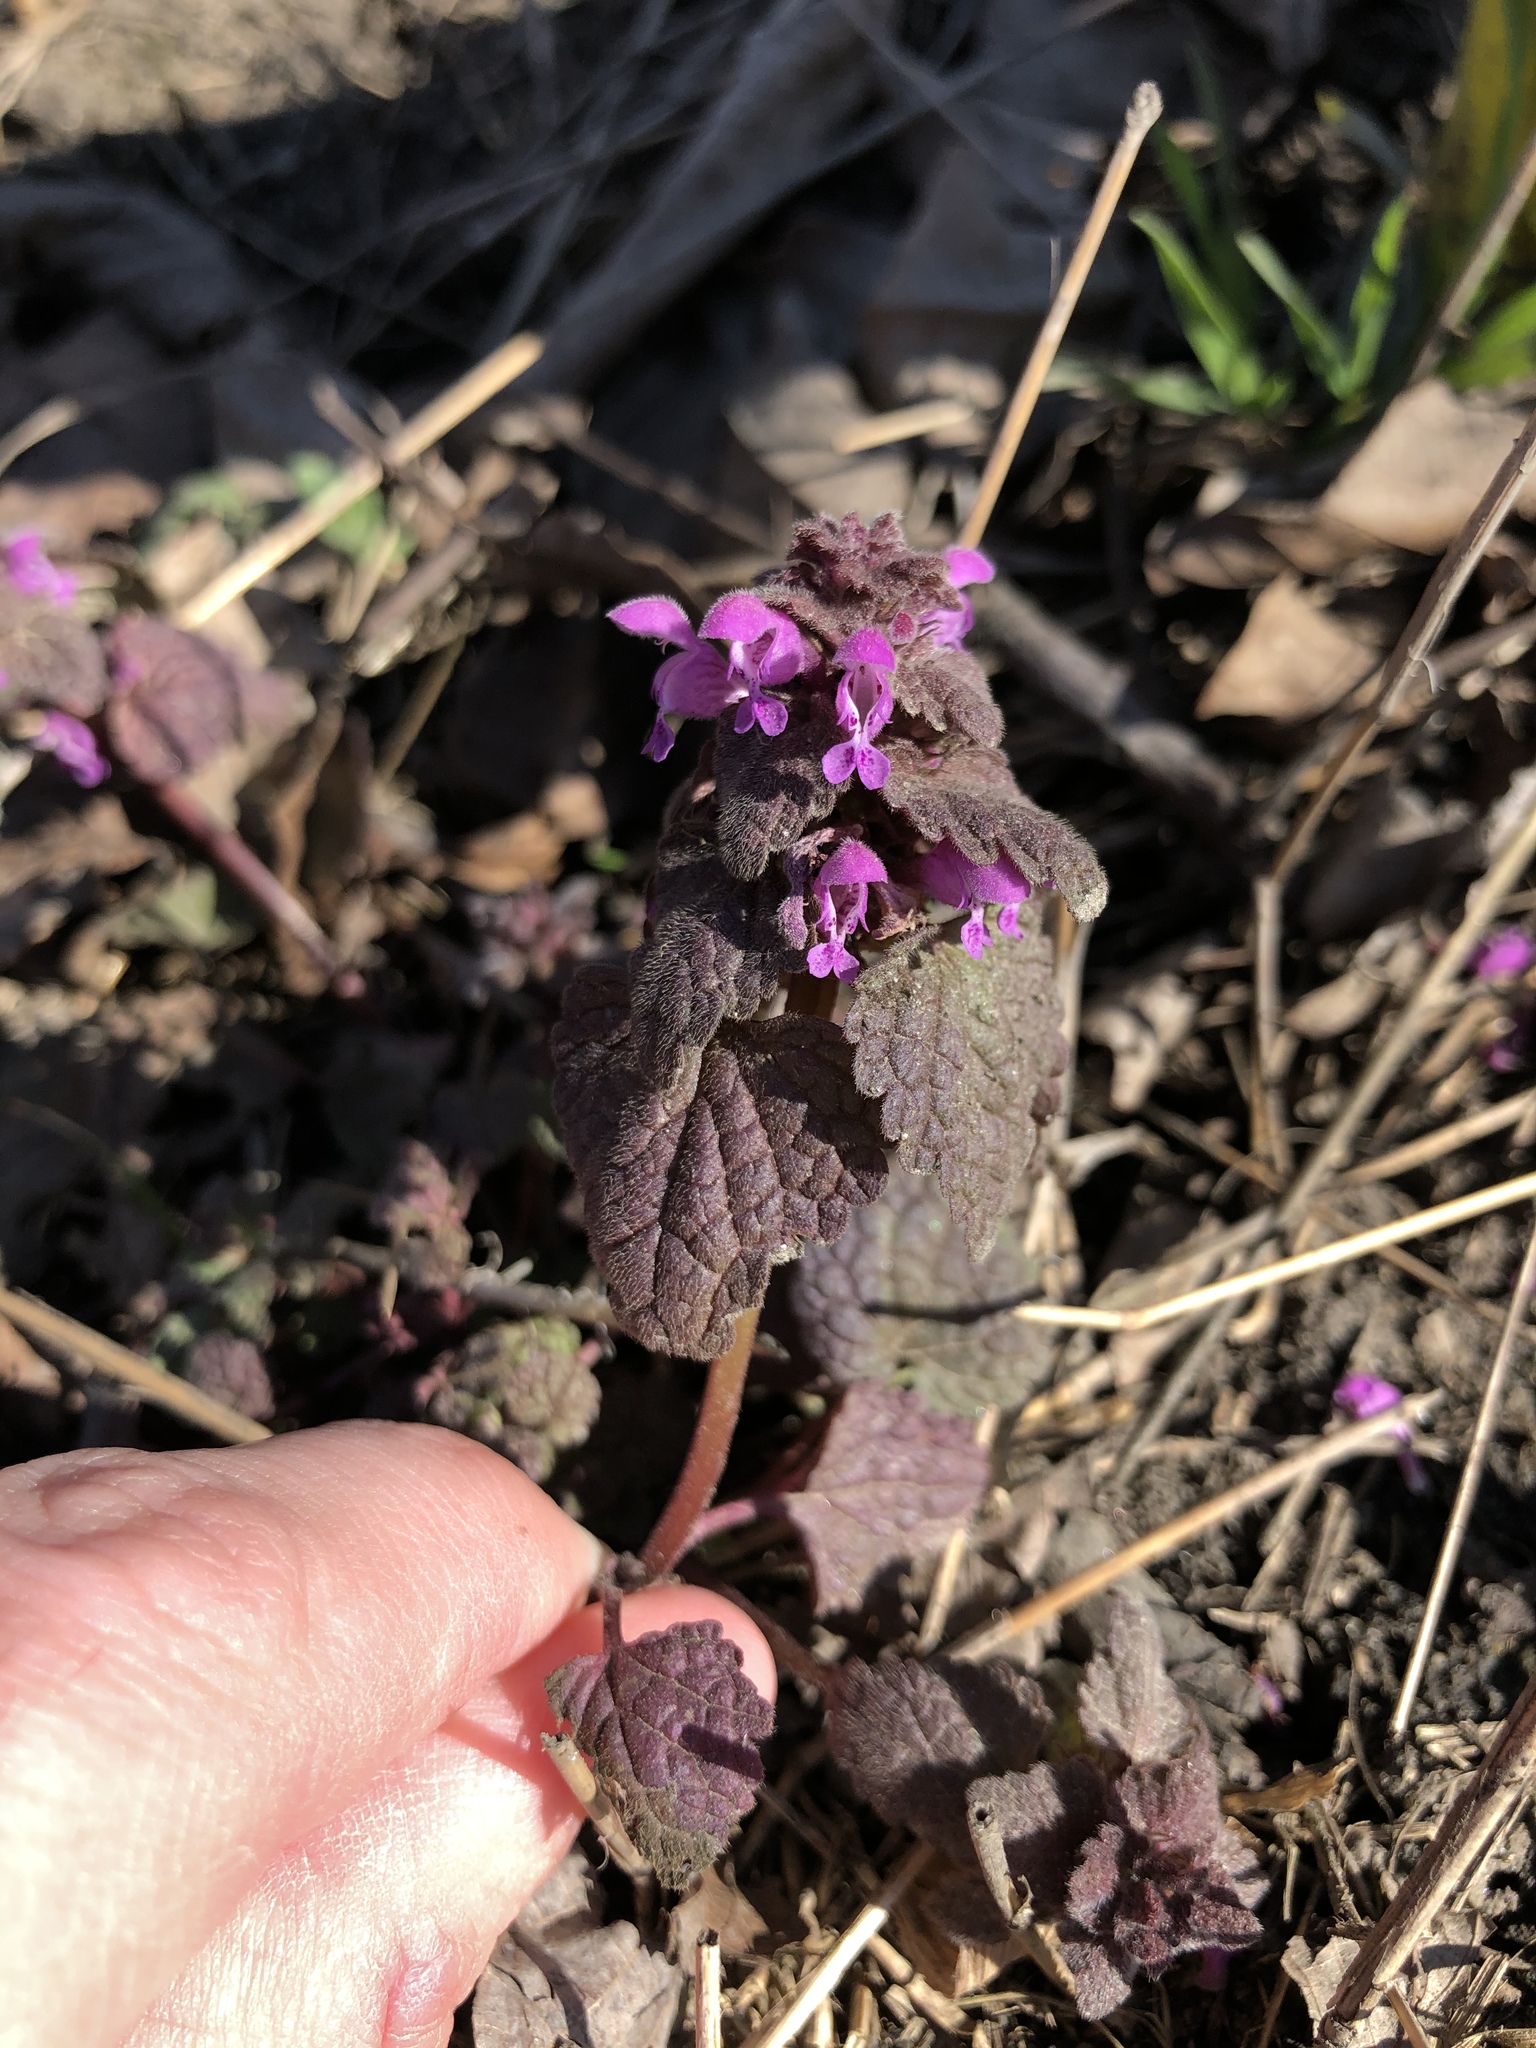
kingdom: Plantae
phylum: Tracheophyta
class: Magnoliopsida
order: Lamiales
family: Lamiaceae
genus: Lamium
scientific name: Lamium purpureum
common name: Red dead-nettle
